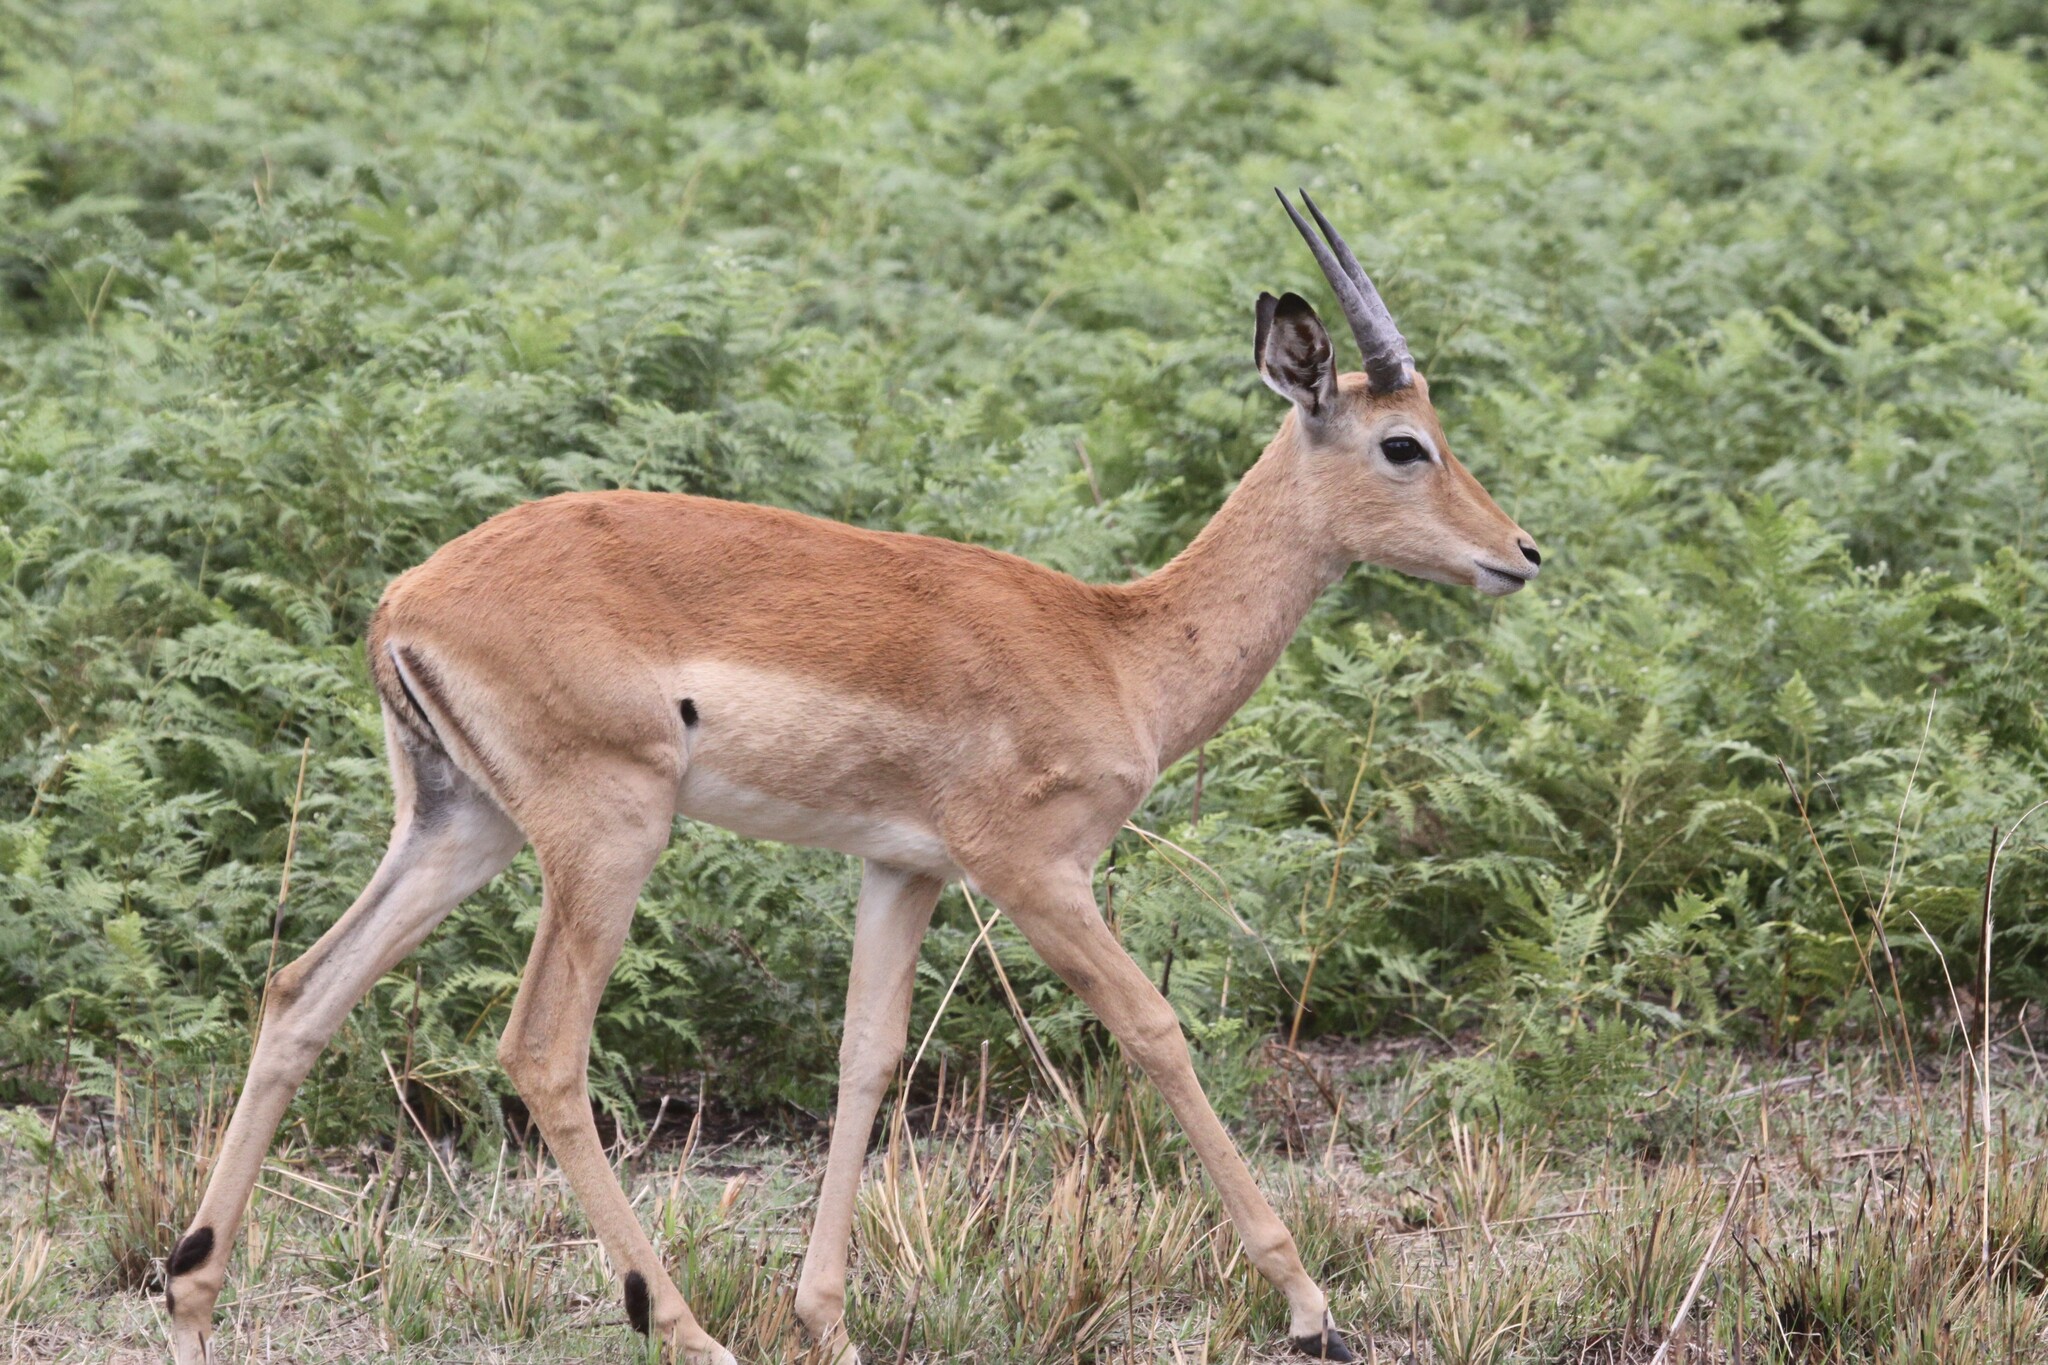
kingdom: Animalia
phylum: Chordata
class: Mammalia
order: Artiodactyla
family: Bovidae
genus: Aepyceros
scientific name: Aepyceros melampus
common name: Impala
